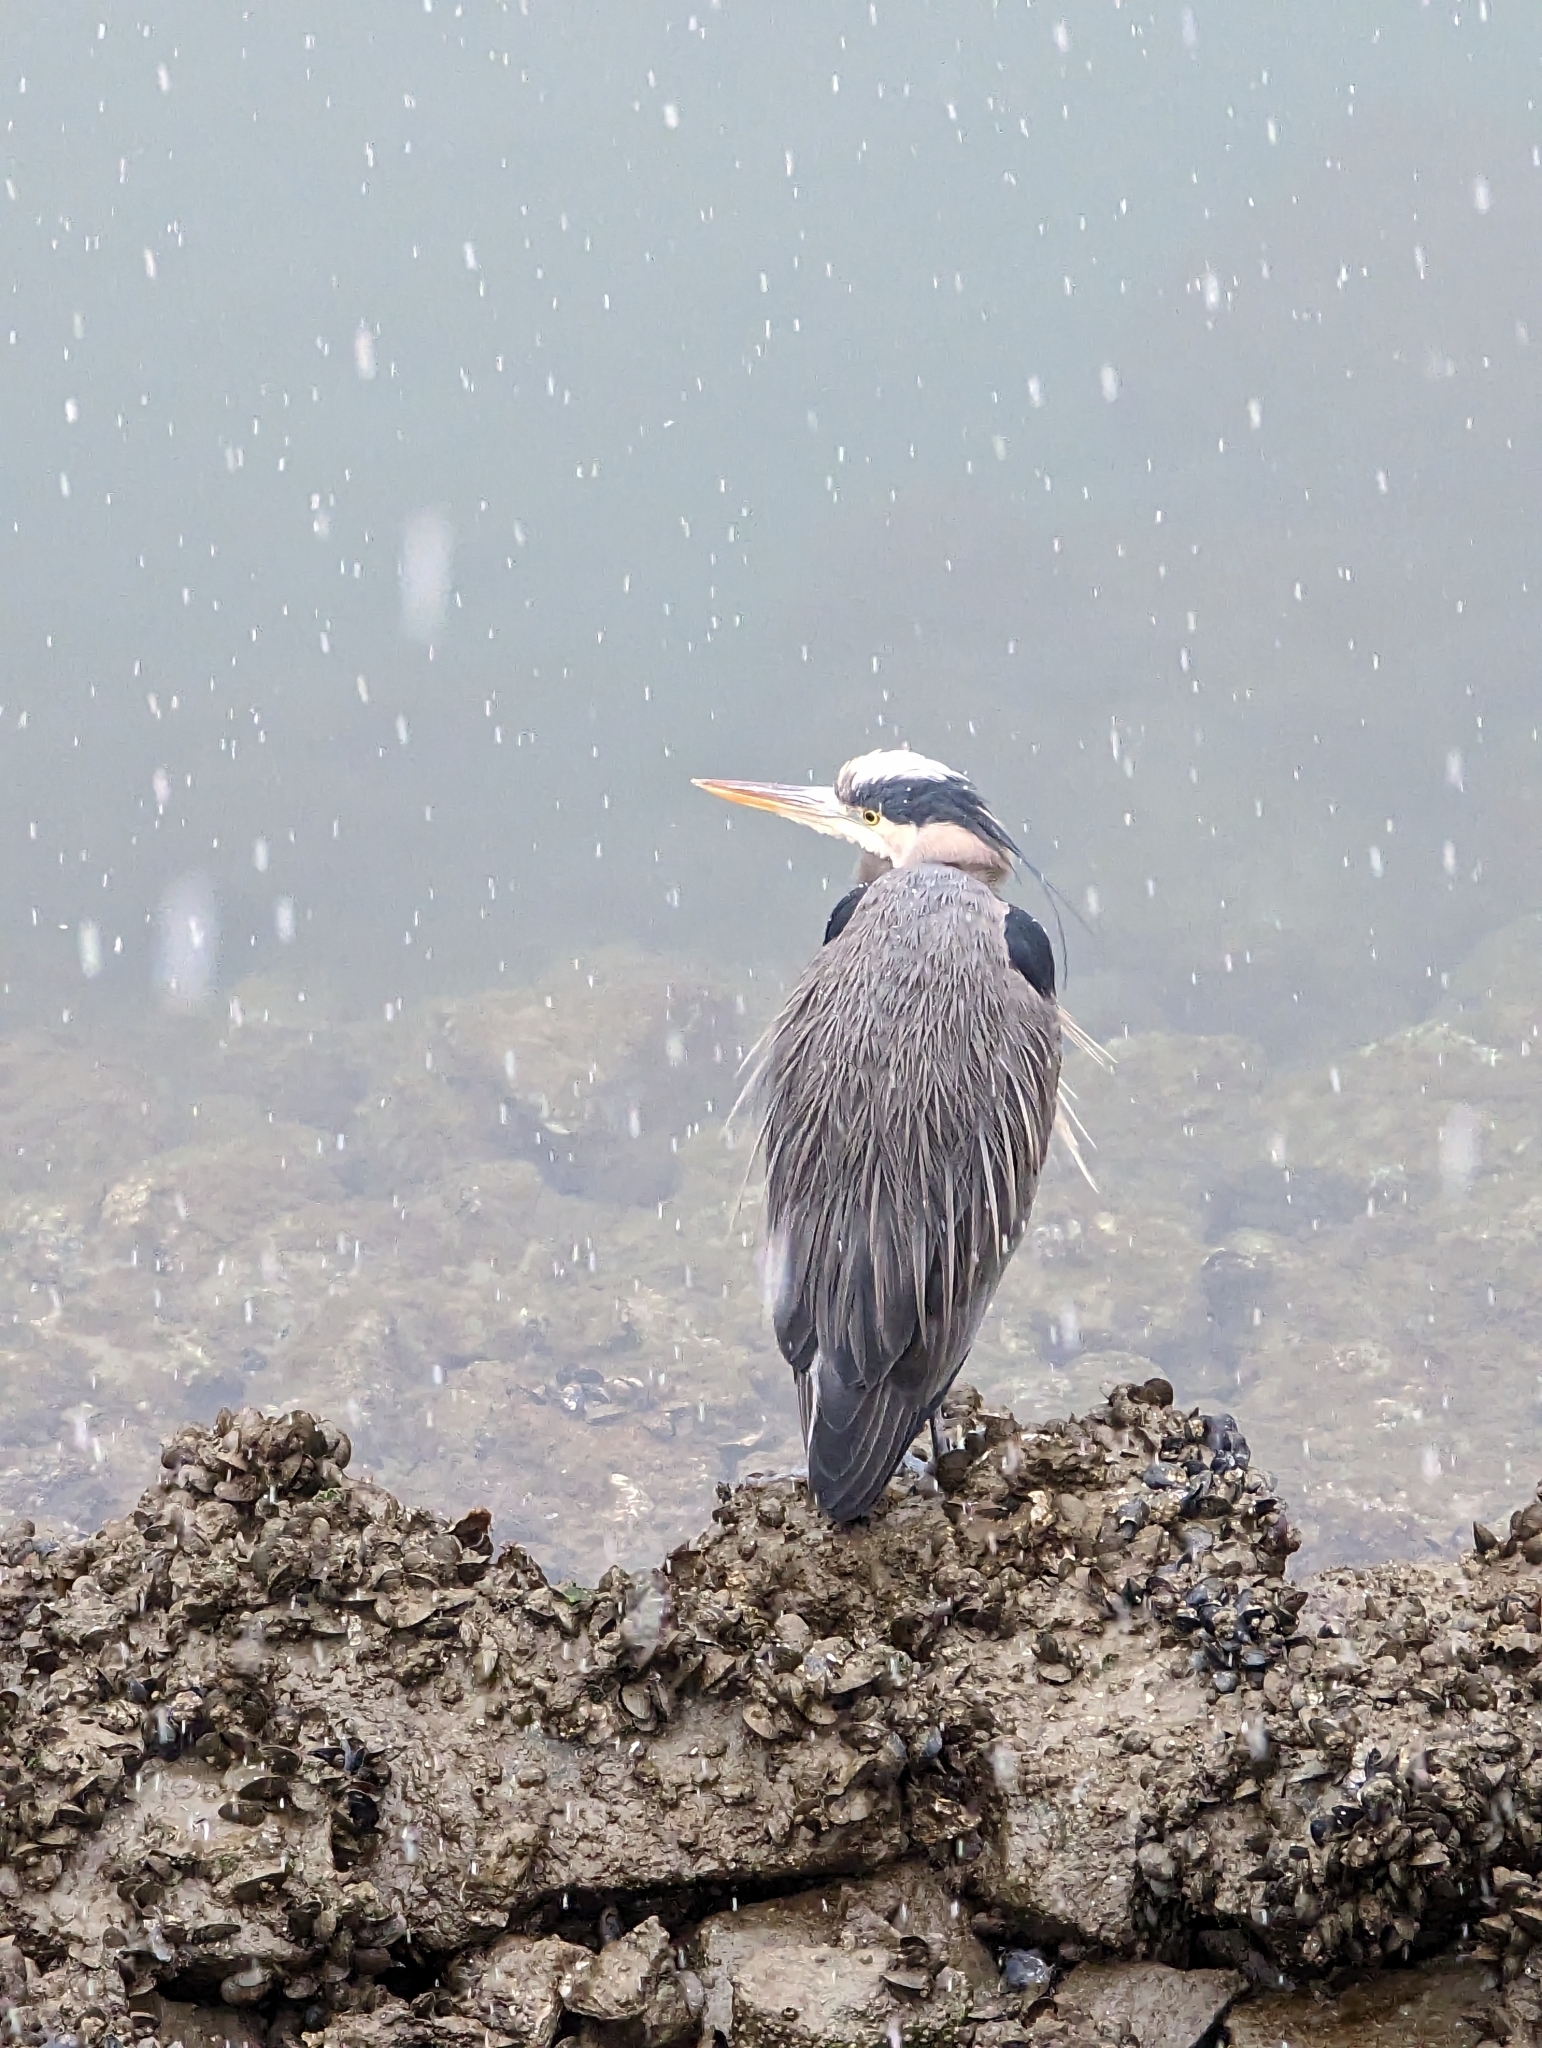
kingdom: Animalia
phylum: Chordata
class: Aves
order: Pelecaniformes
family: Ardeidae
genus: Ardea
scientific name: Ardea herodias
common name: Great blue heron
